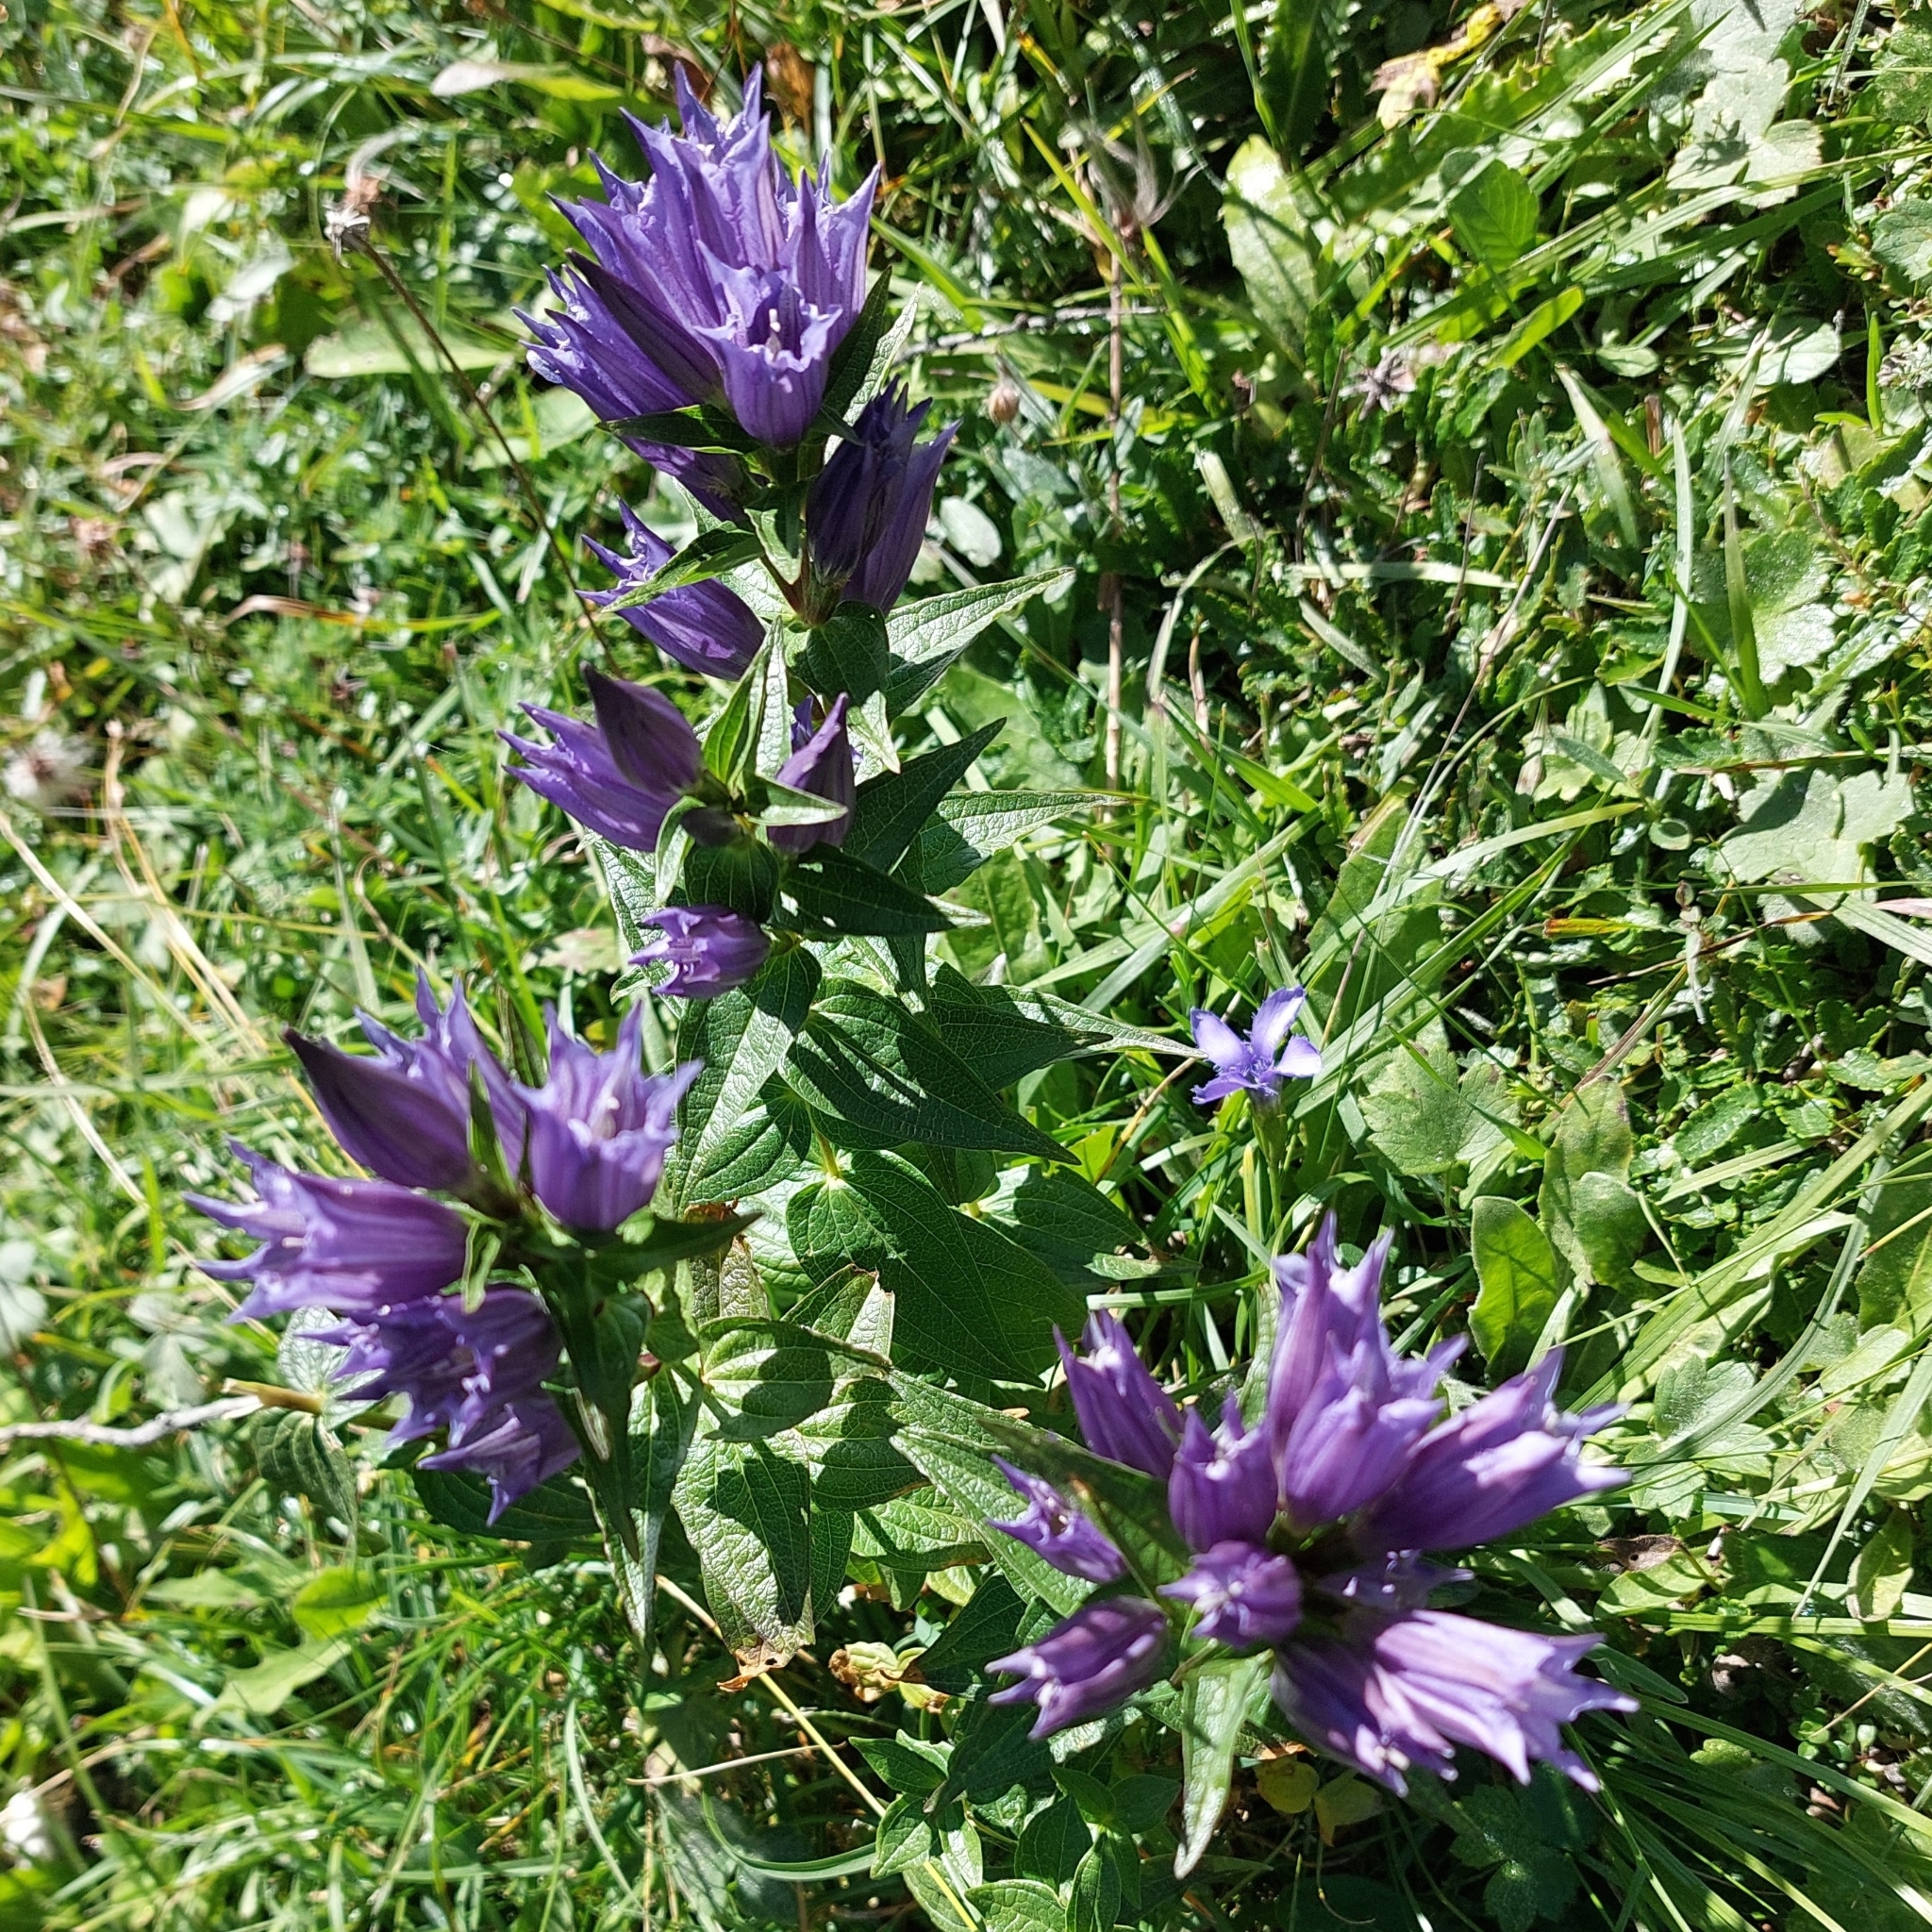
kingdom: Plantae
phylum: Tracheophyta
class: Magnoliopsida
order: Gentianales
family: Gentianaceae
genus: Gentiana
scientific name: Gentiana asclepiadea
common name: Willow gentian
